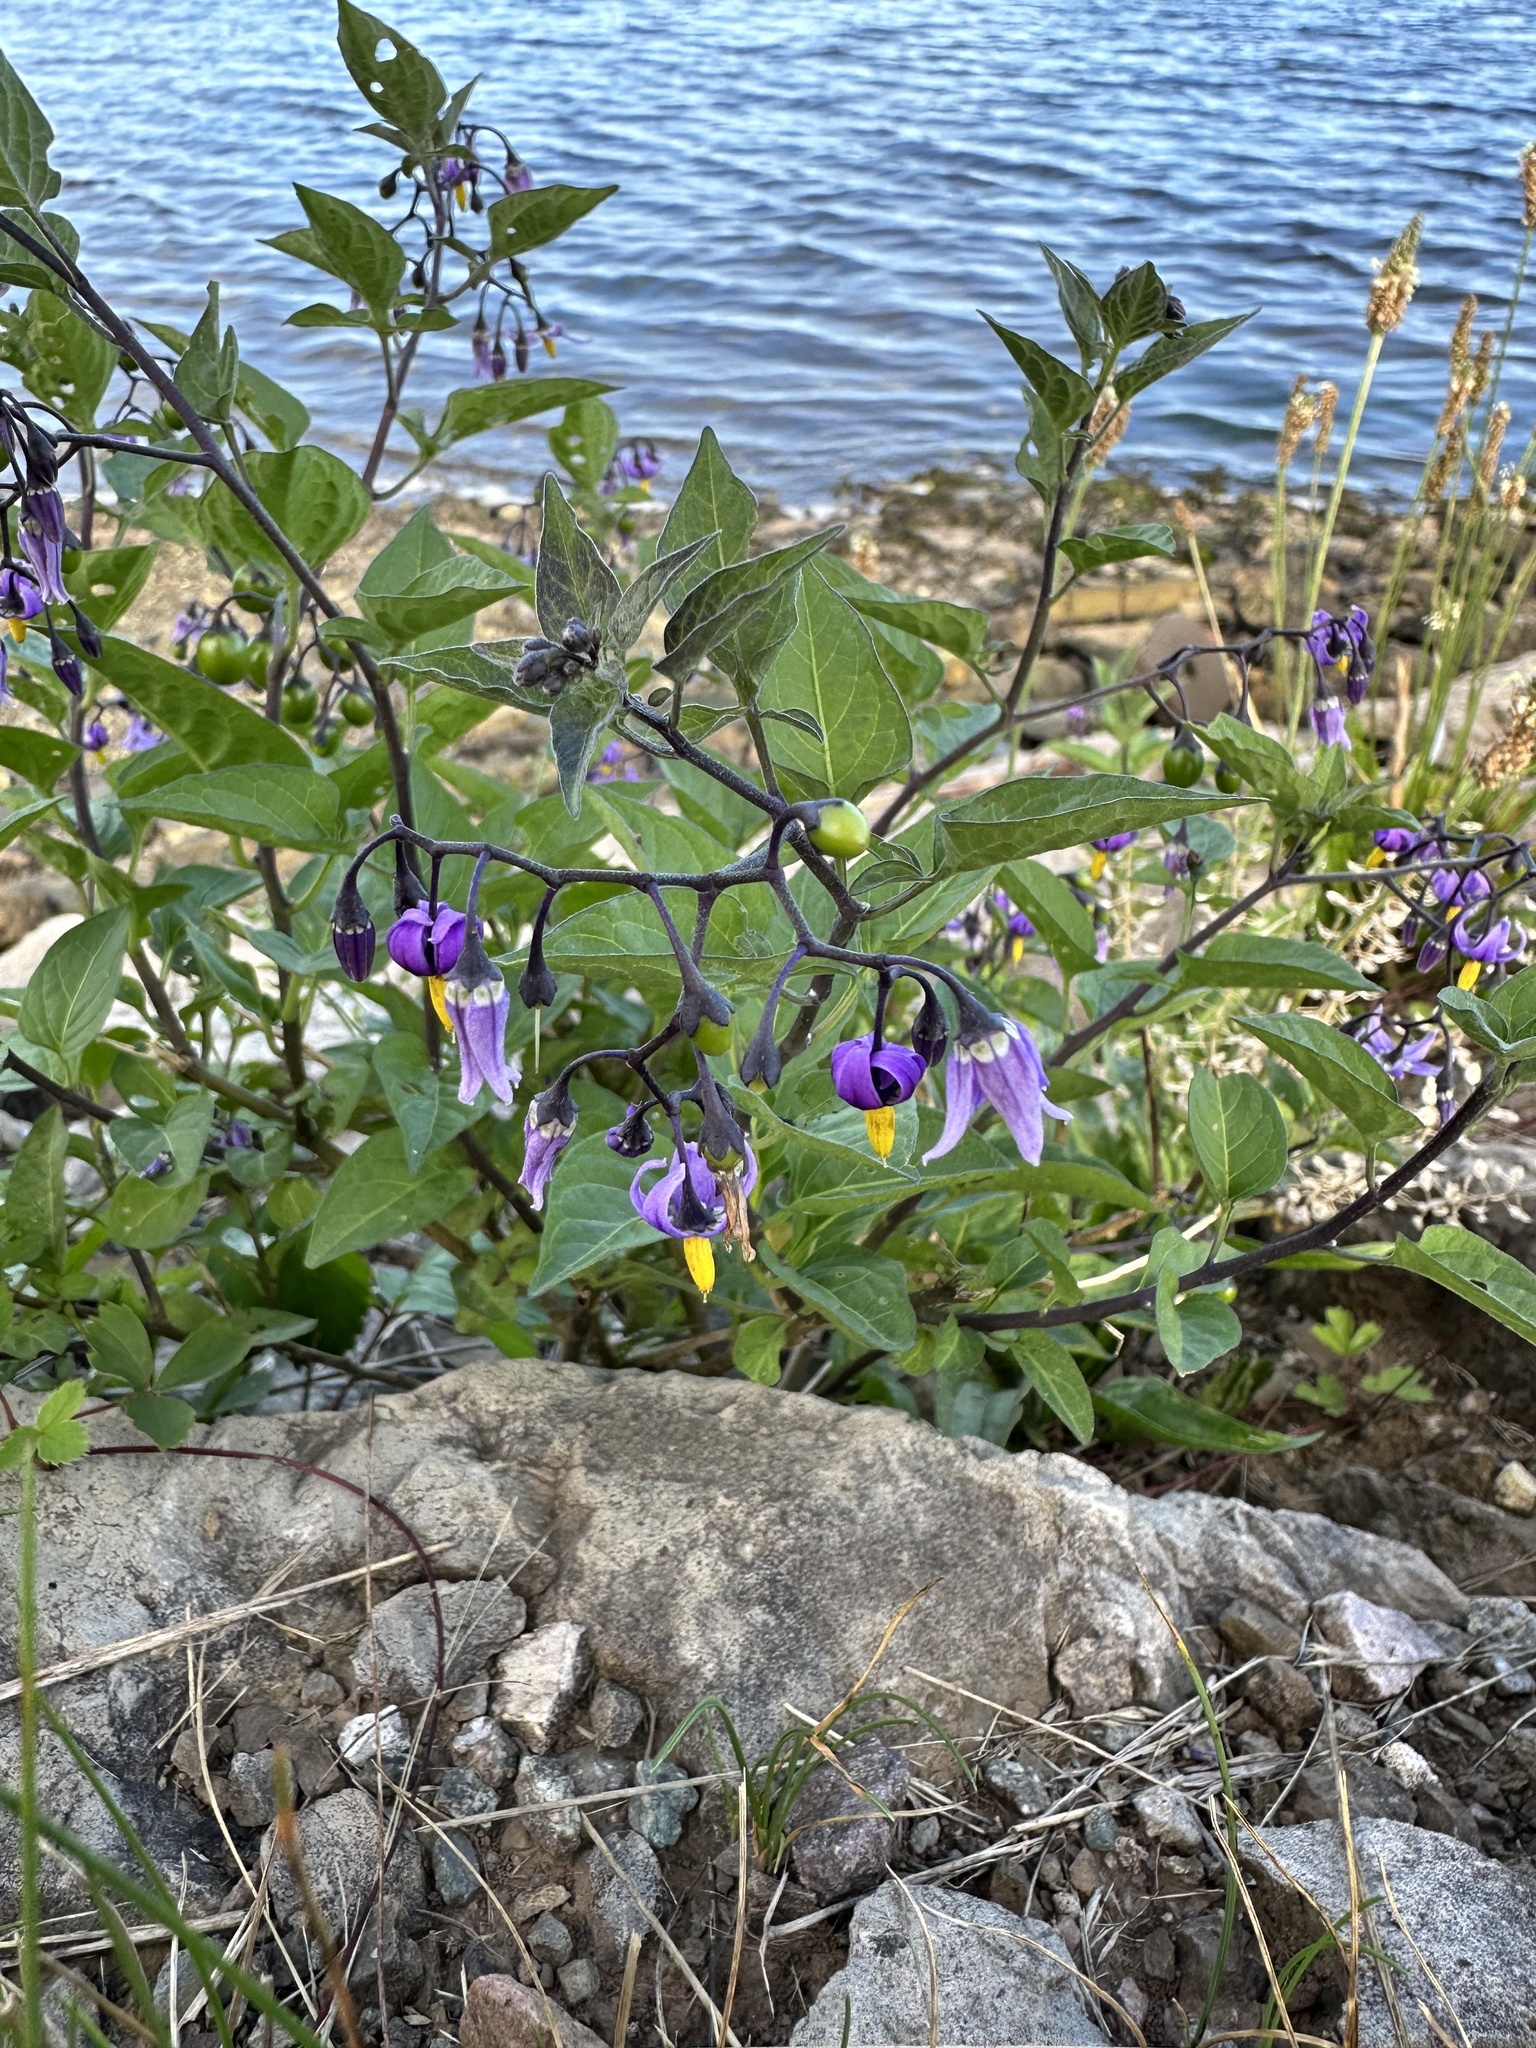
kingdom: Plantae
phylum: Tracheophyta
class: Magnoliopsida
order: Solanales
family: Solanaceae
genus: Solanum
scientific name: Solanum dulcamara
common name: Climbing nightshade
